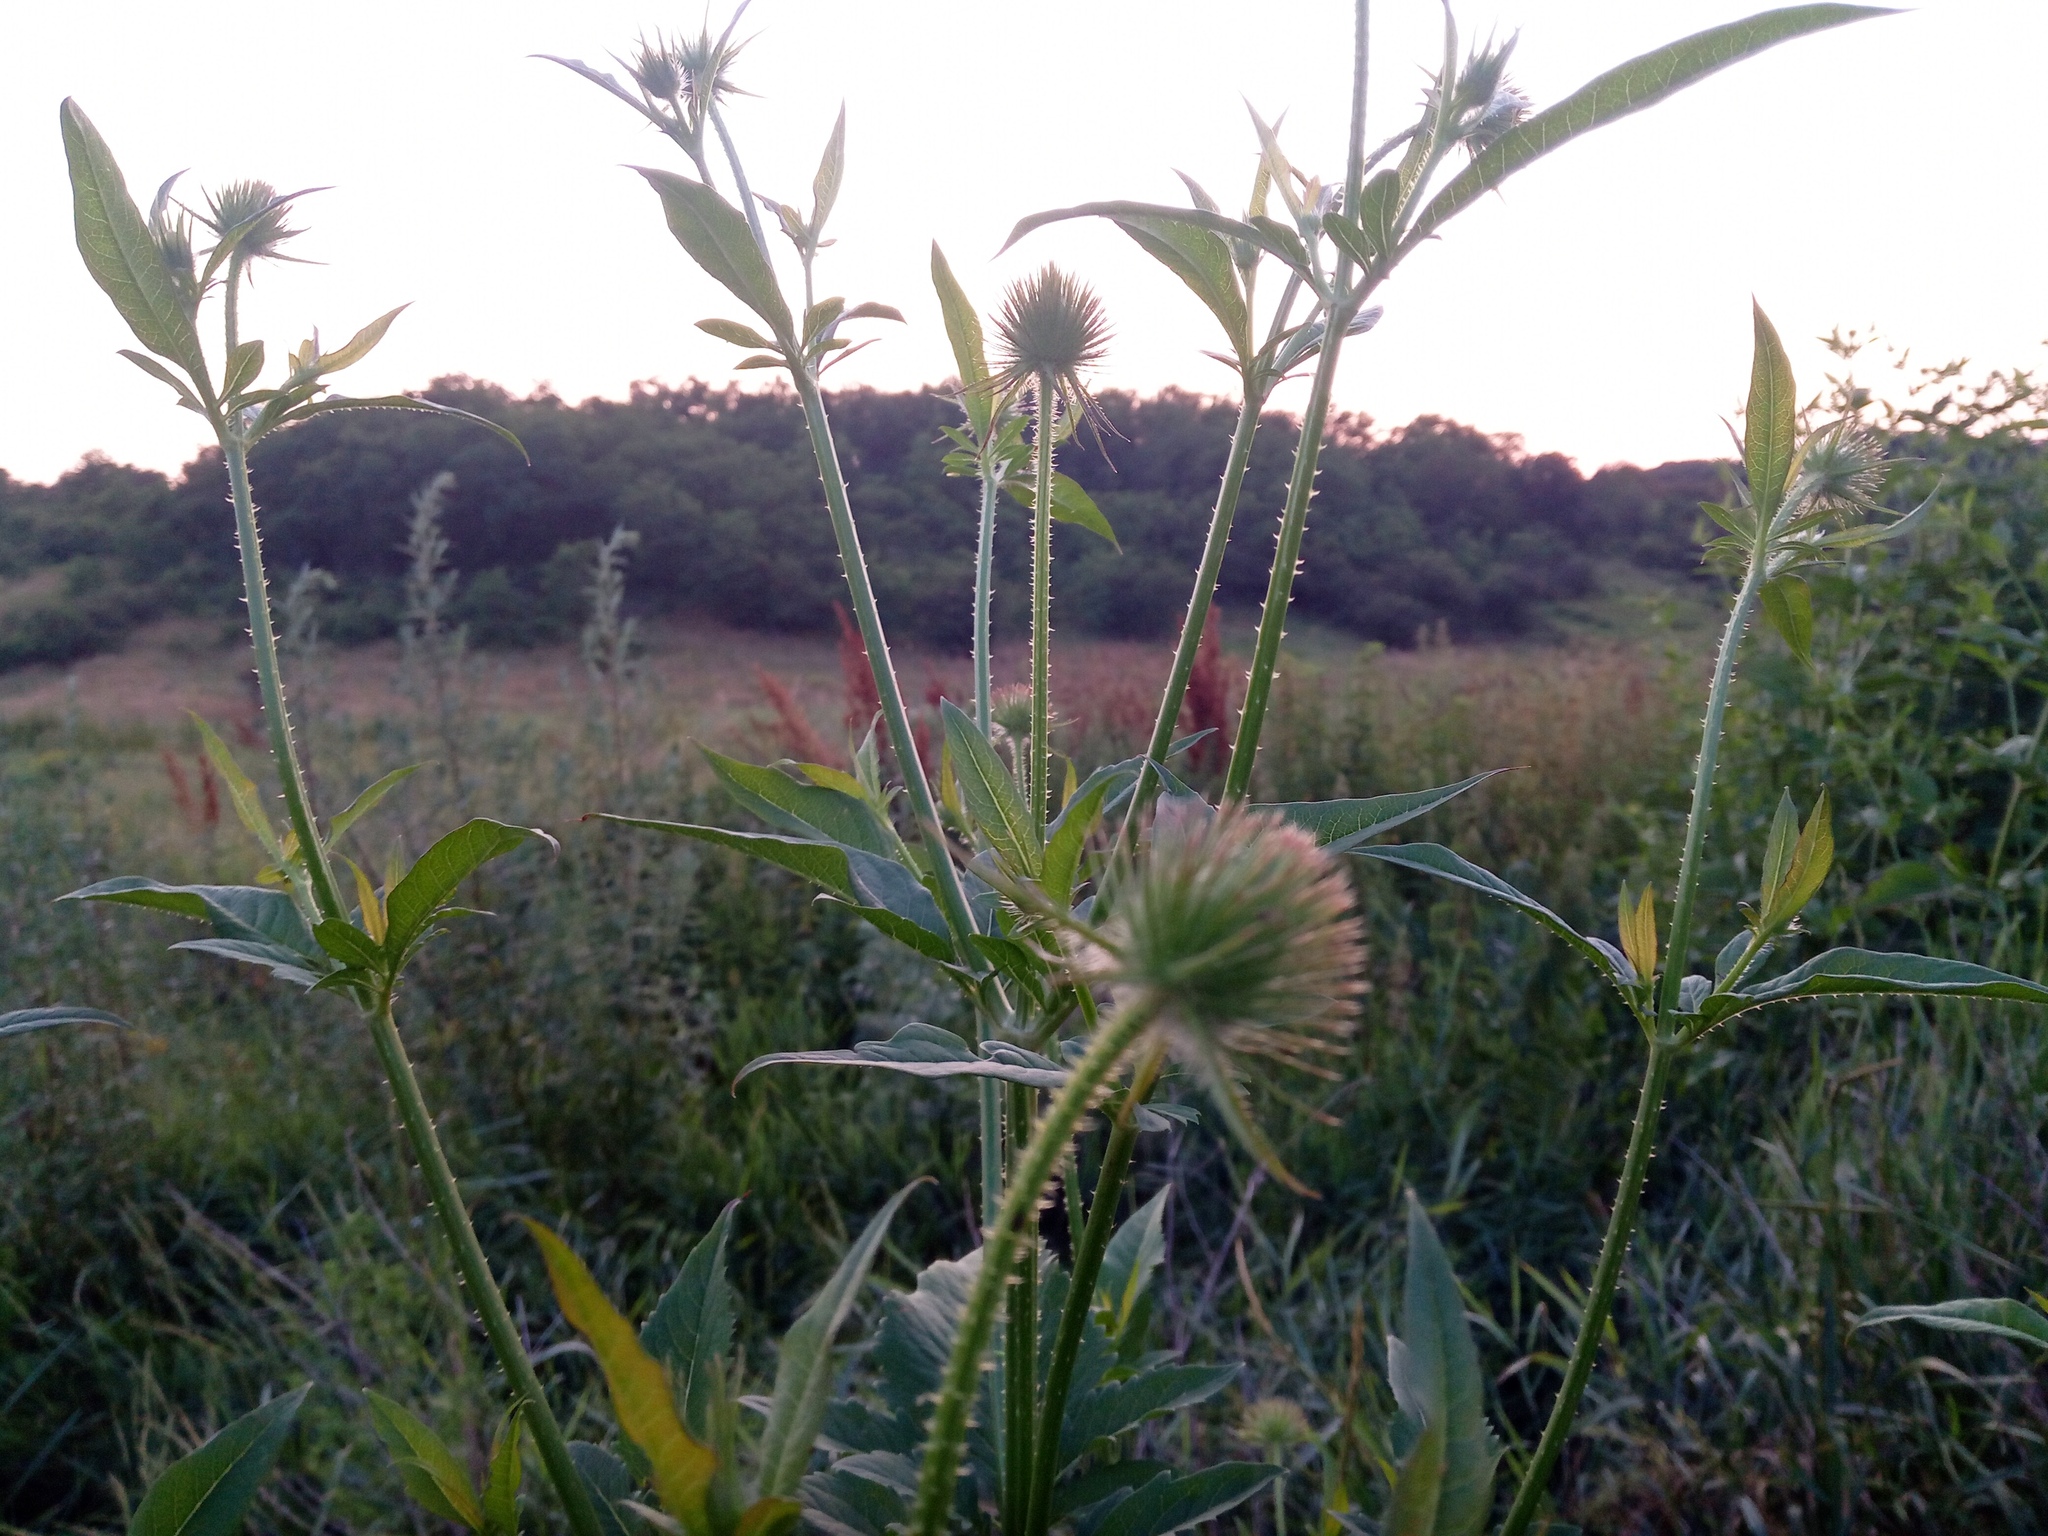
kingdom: Plantae
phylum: Tracheophyta
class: Magnoliopsida
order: Dipsacales
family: Caprifoliaceae
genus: Dipsacus
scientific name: Dipsacus strigosus
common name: Yellow-flowered teasel
